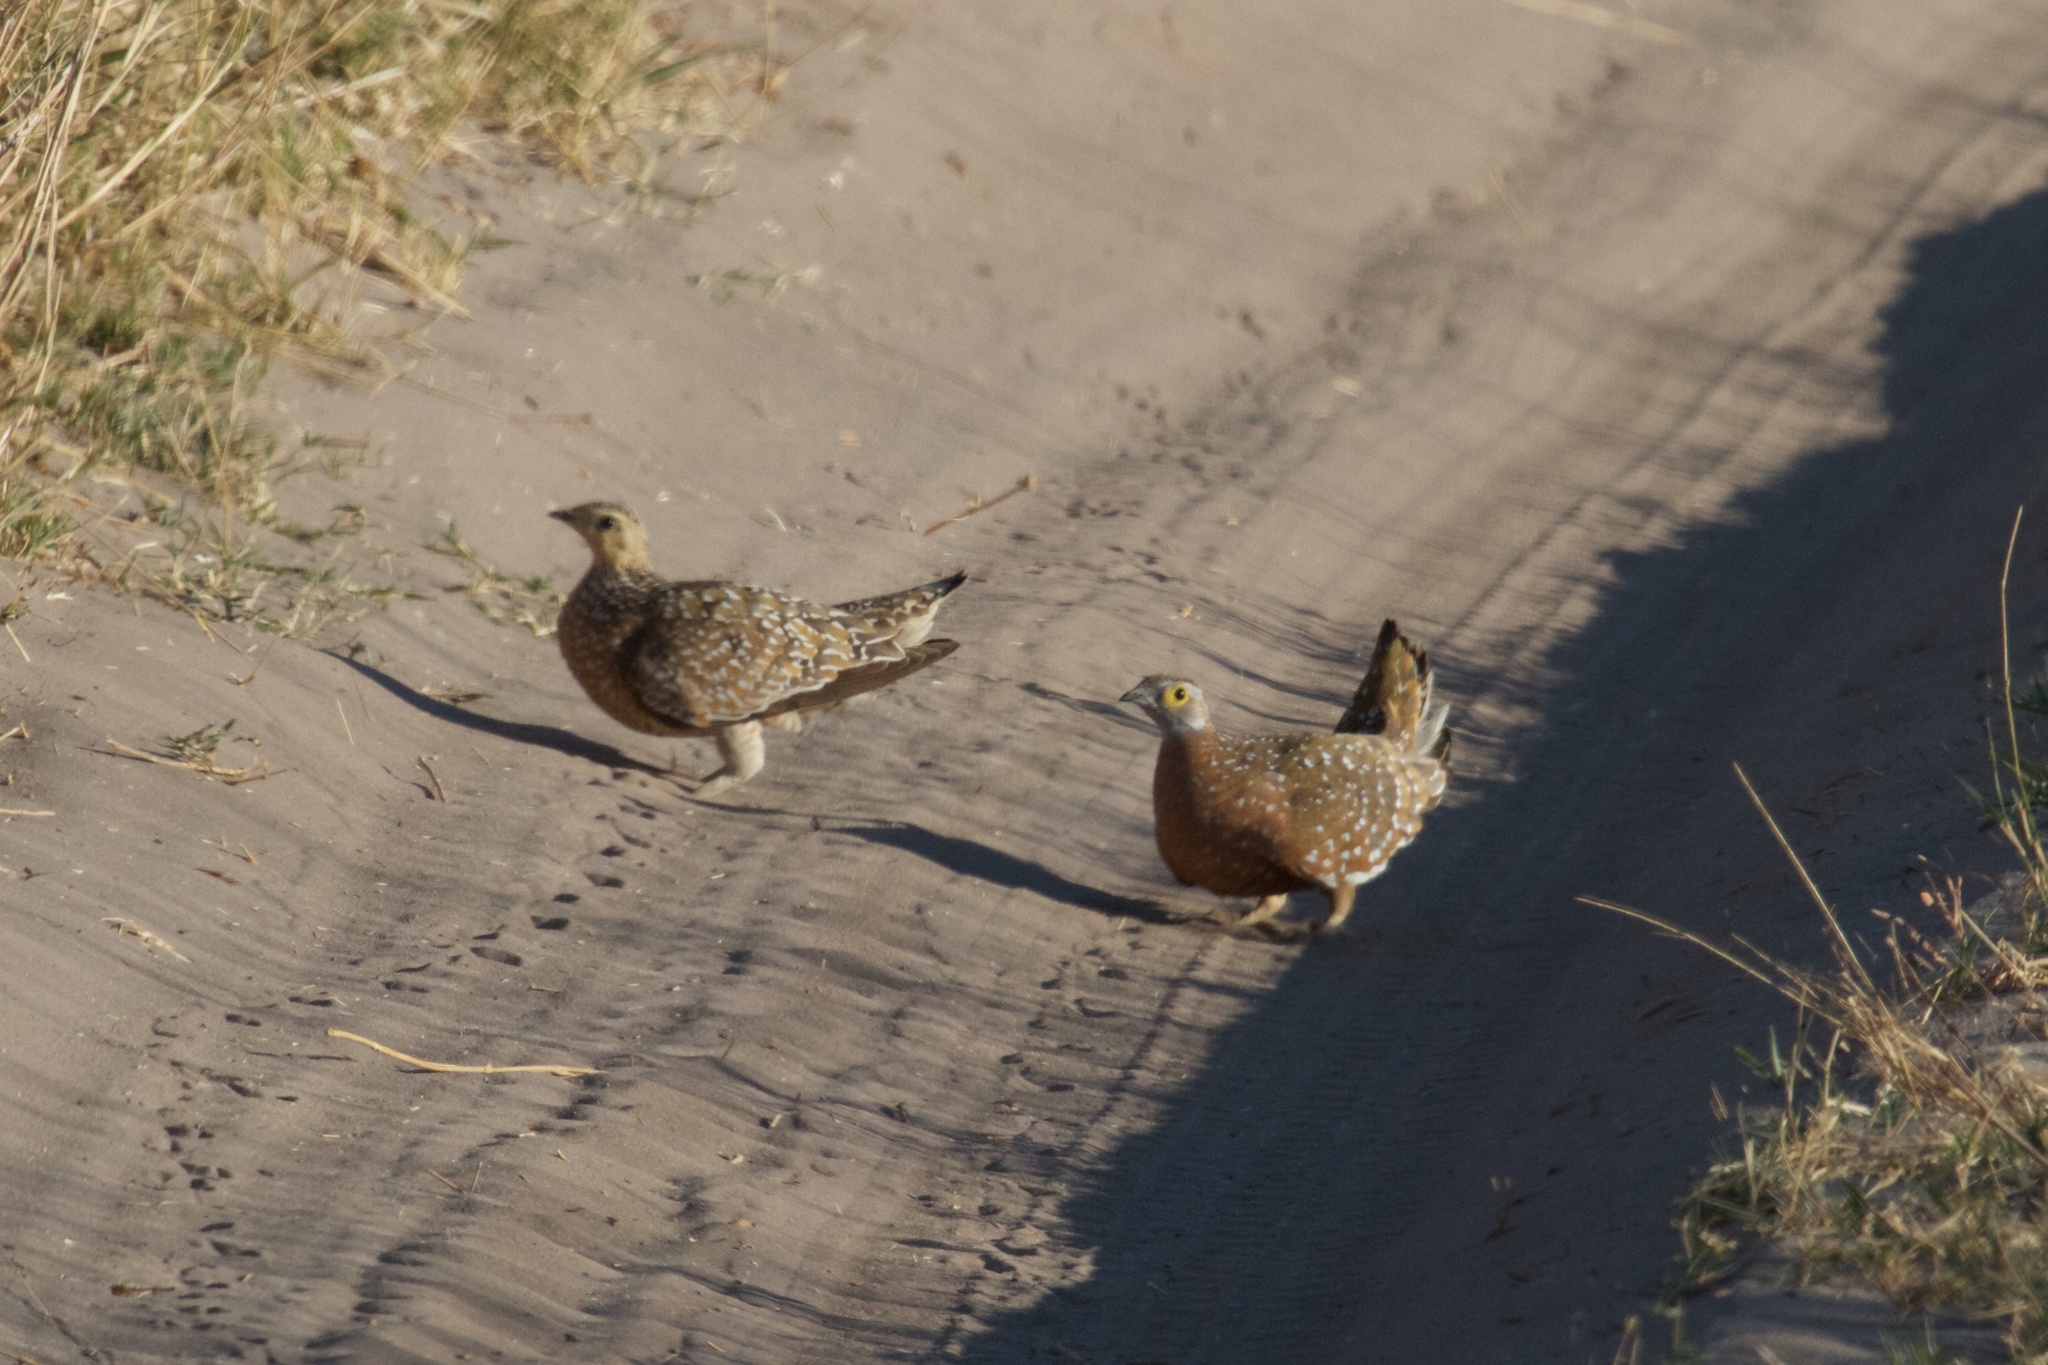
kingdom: Animalia
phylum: Chordata
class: Aves
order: Pteroclidiformes
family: Pteroclididae
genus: Pterocles
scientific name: Pterocles burchelli
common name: Burchell's sandgrouse
